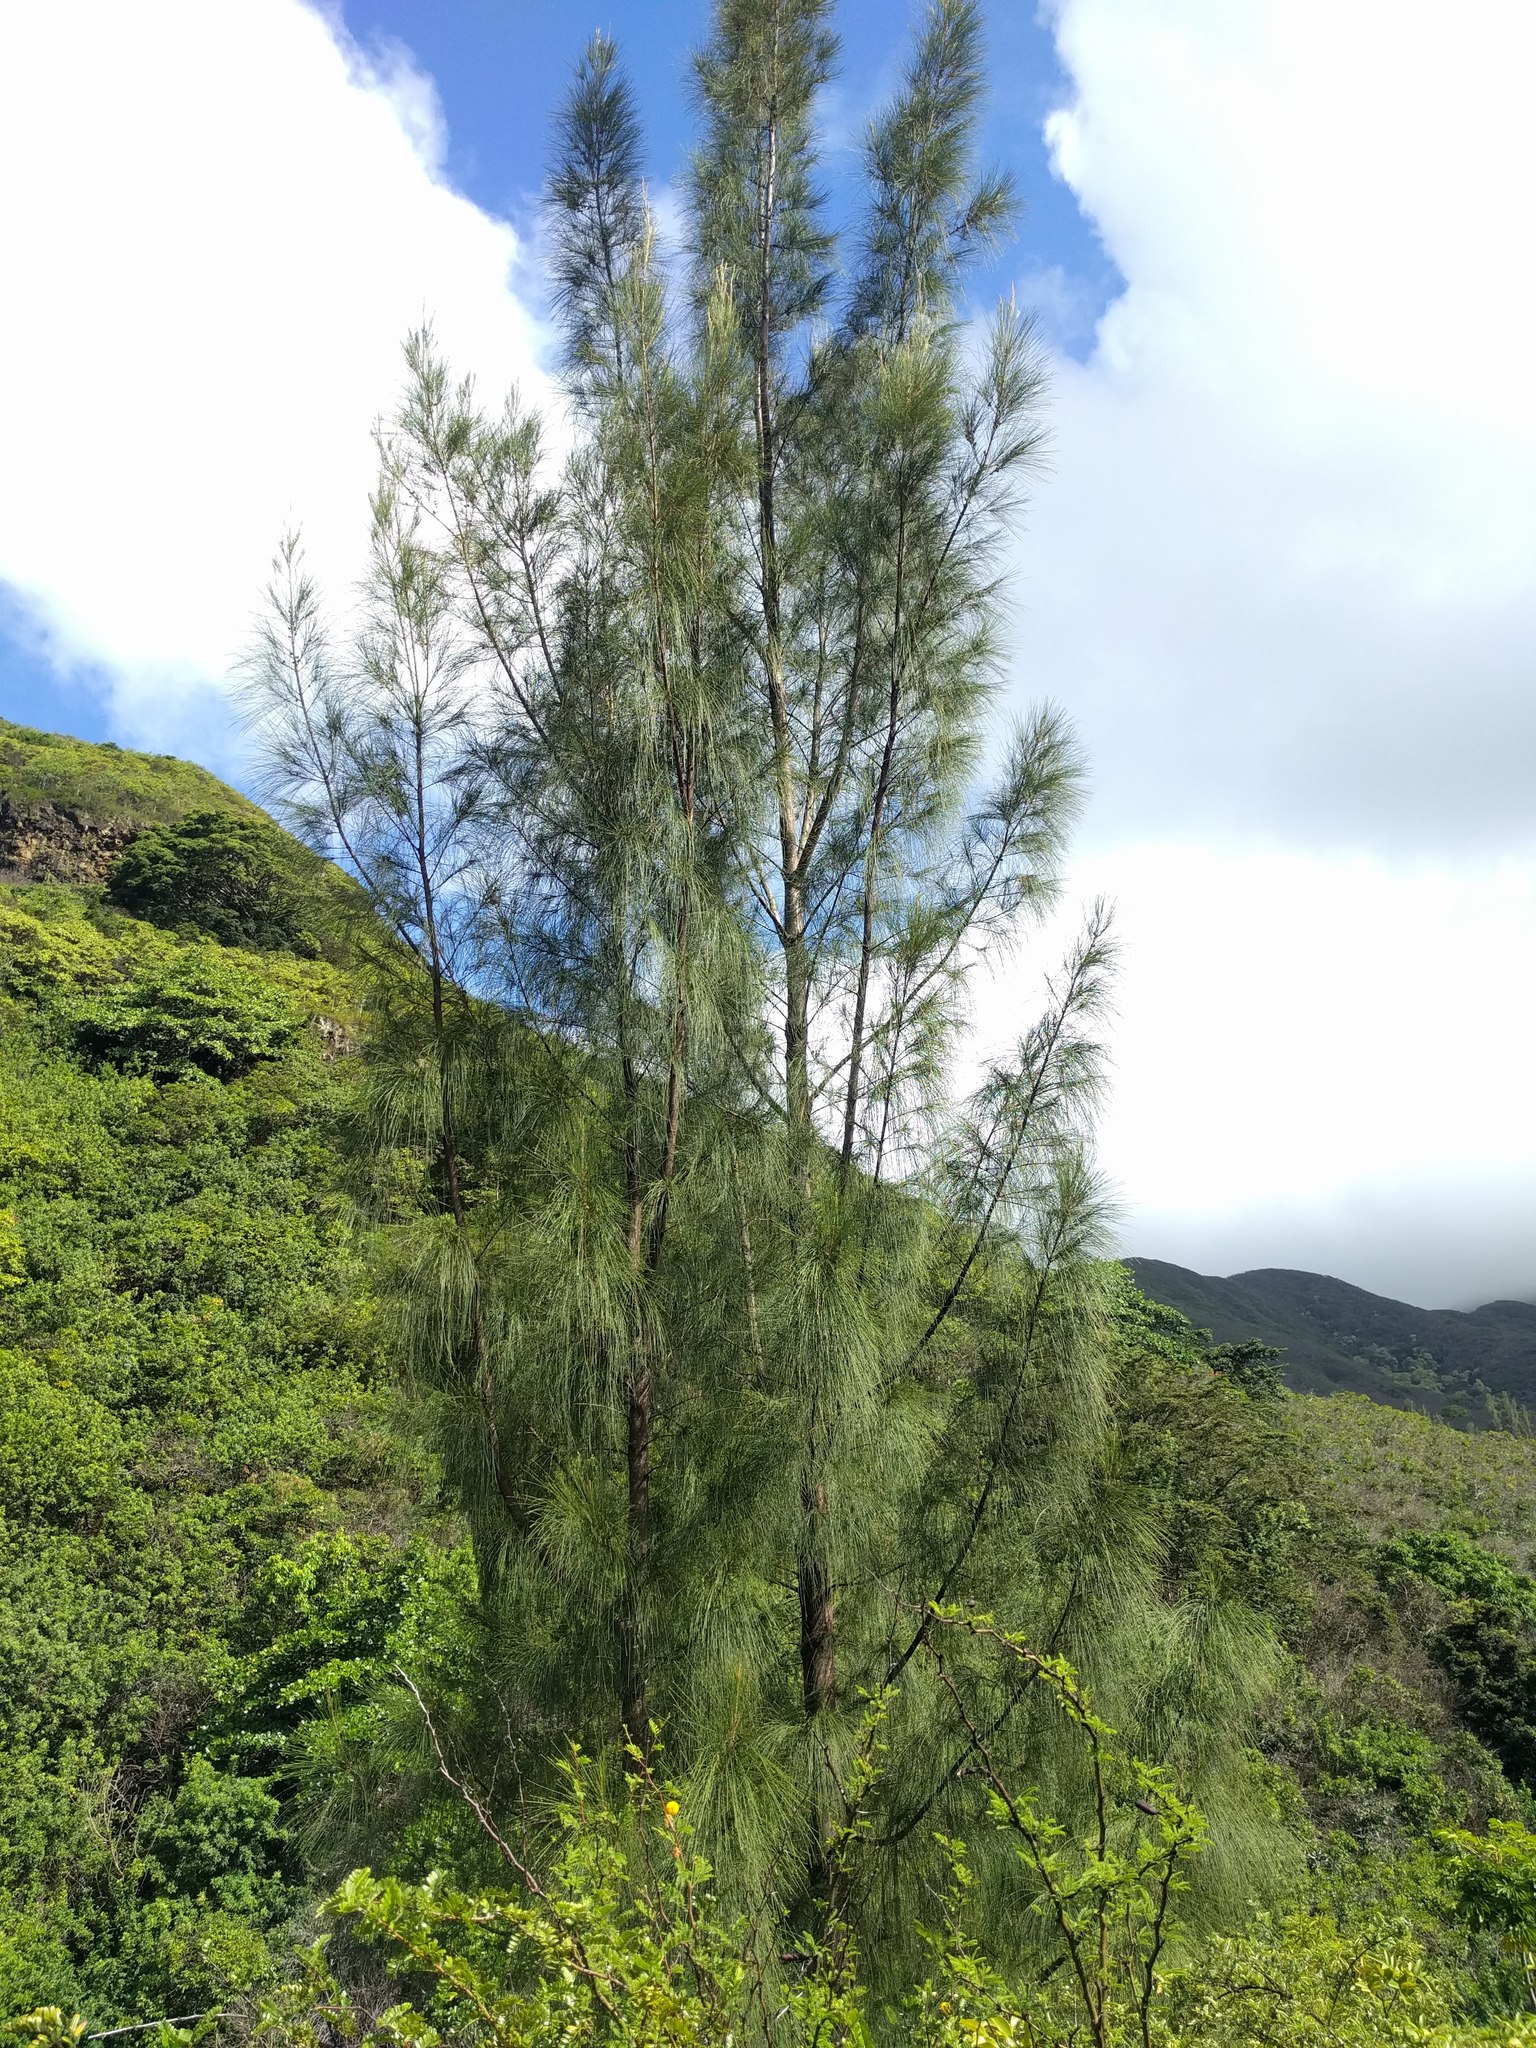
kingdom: Plantae
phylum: Tracheophyta
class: Magnoliopsida
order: Fagales
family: Casuarinaceae
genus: Casuarina
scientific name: Casuarina equisetifolia
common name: Beach sheoak
